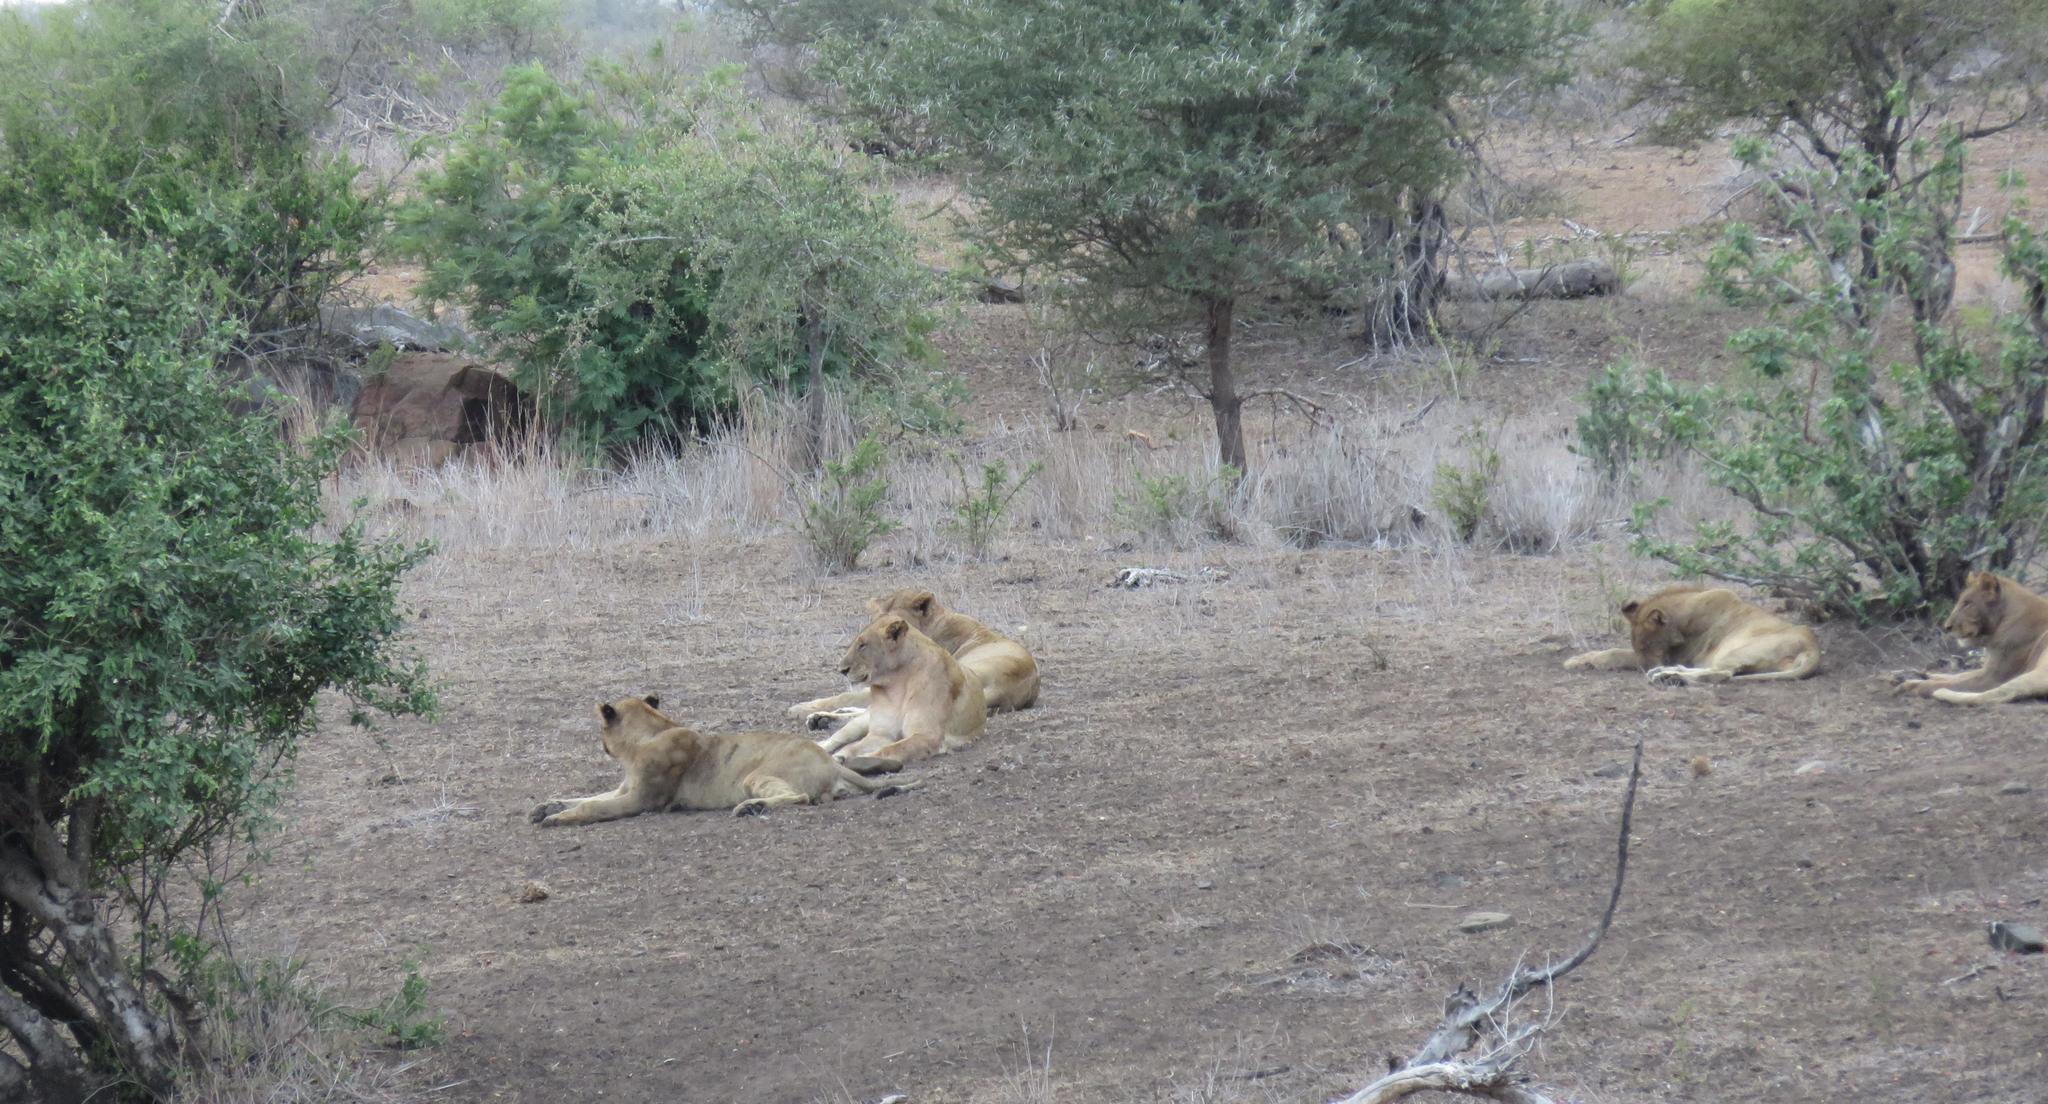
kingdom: Animalia
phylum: Chordata
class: Mammalia
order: Carnivora
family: Felidae
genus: Panthera
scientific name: Panthera leo
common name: Lion
